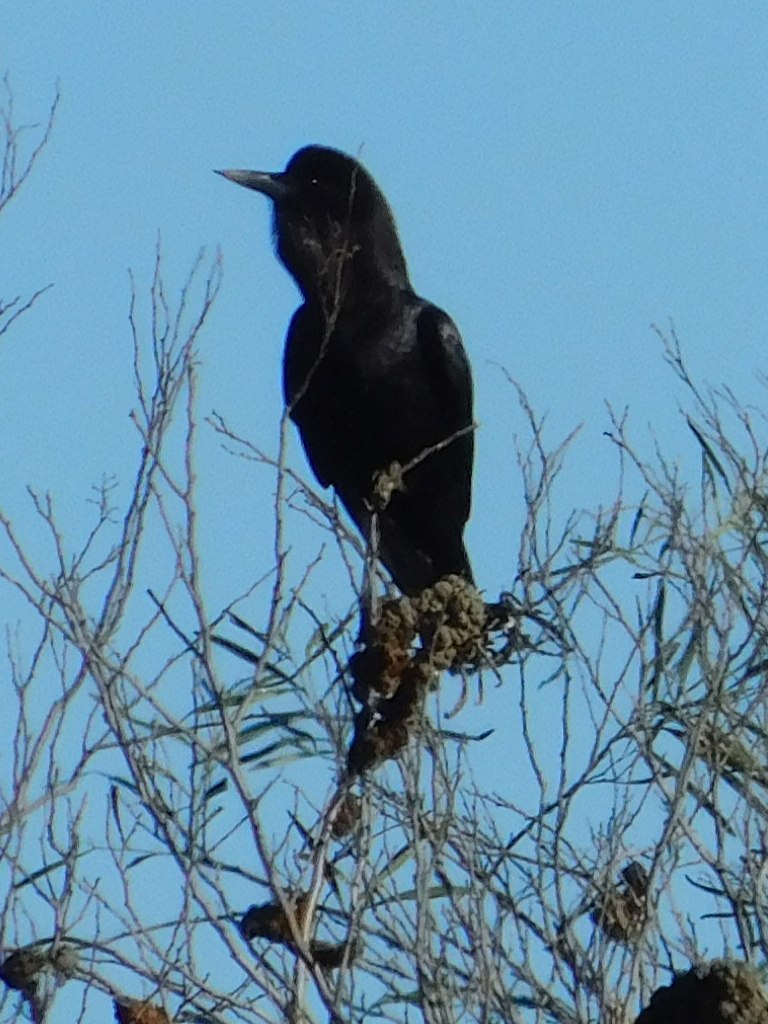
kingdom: Animalia
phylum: Chordata
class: Aves
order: Passeriformes
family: Corvidae
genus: Corvus
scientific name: Corvus capensis
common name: Cape crow
